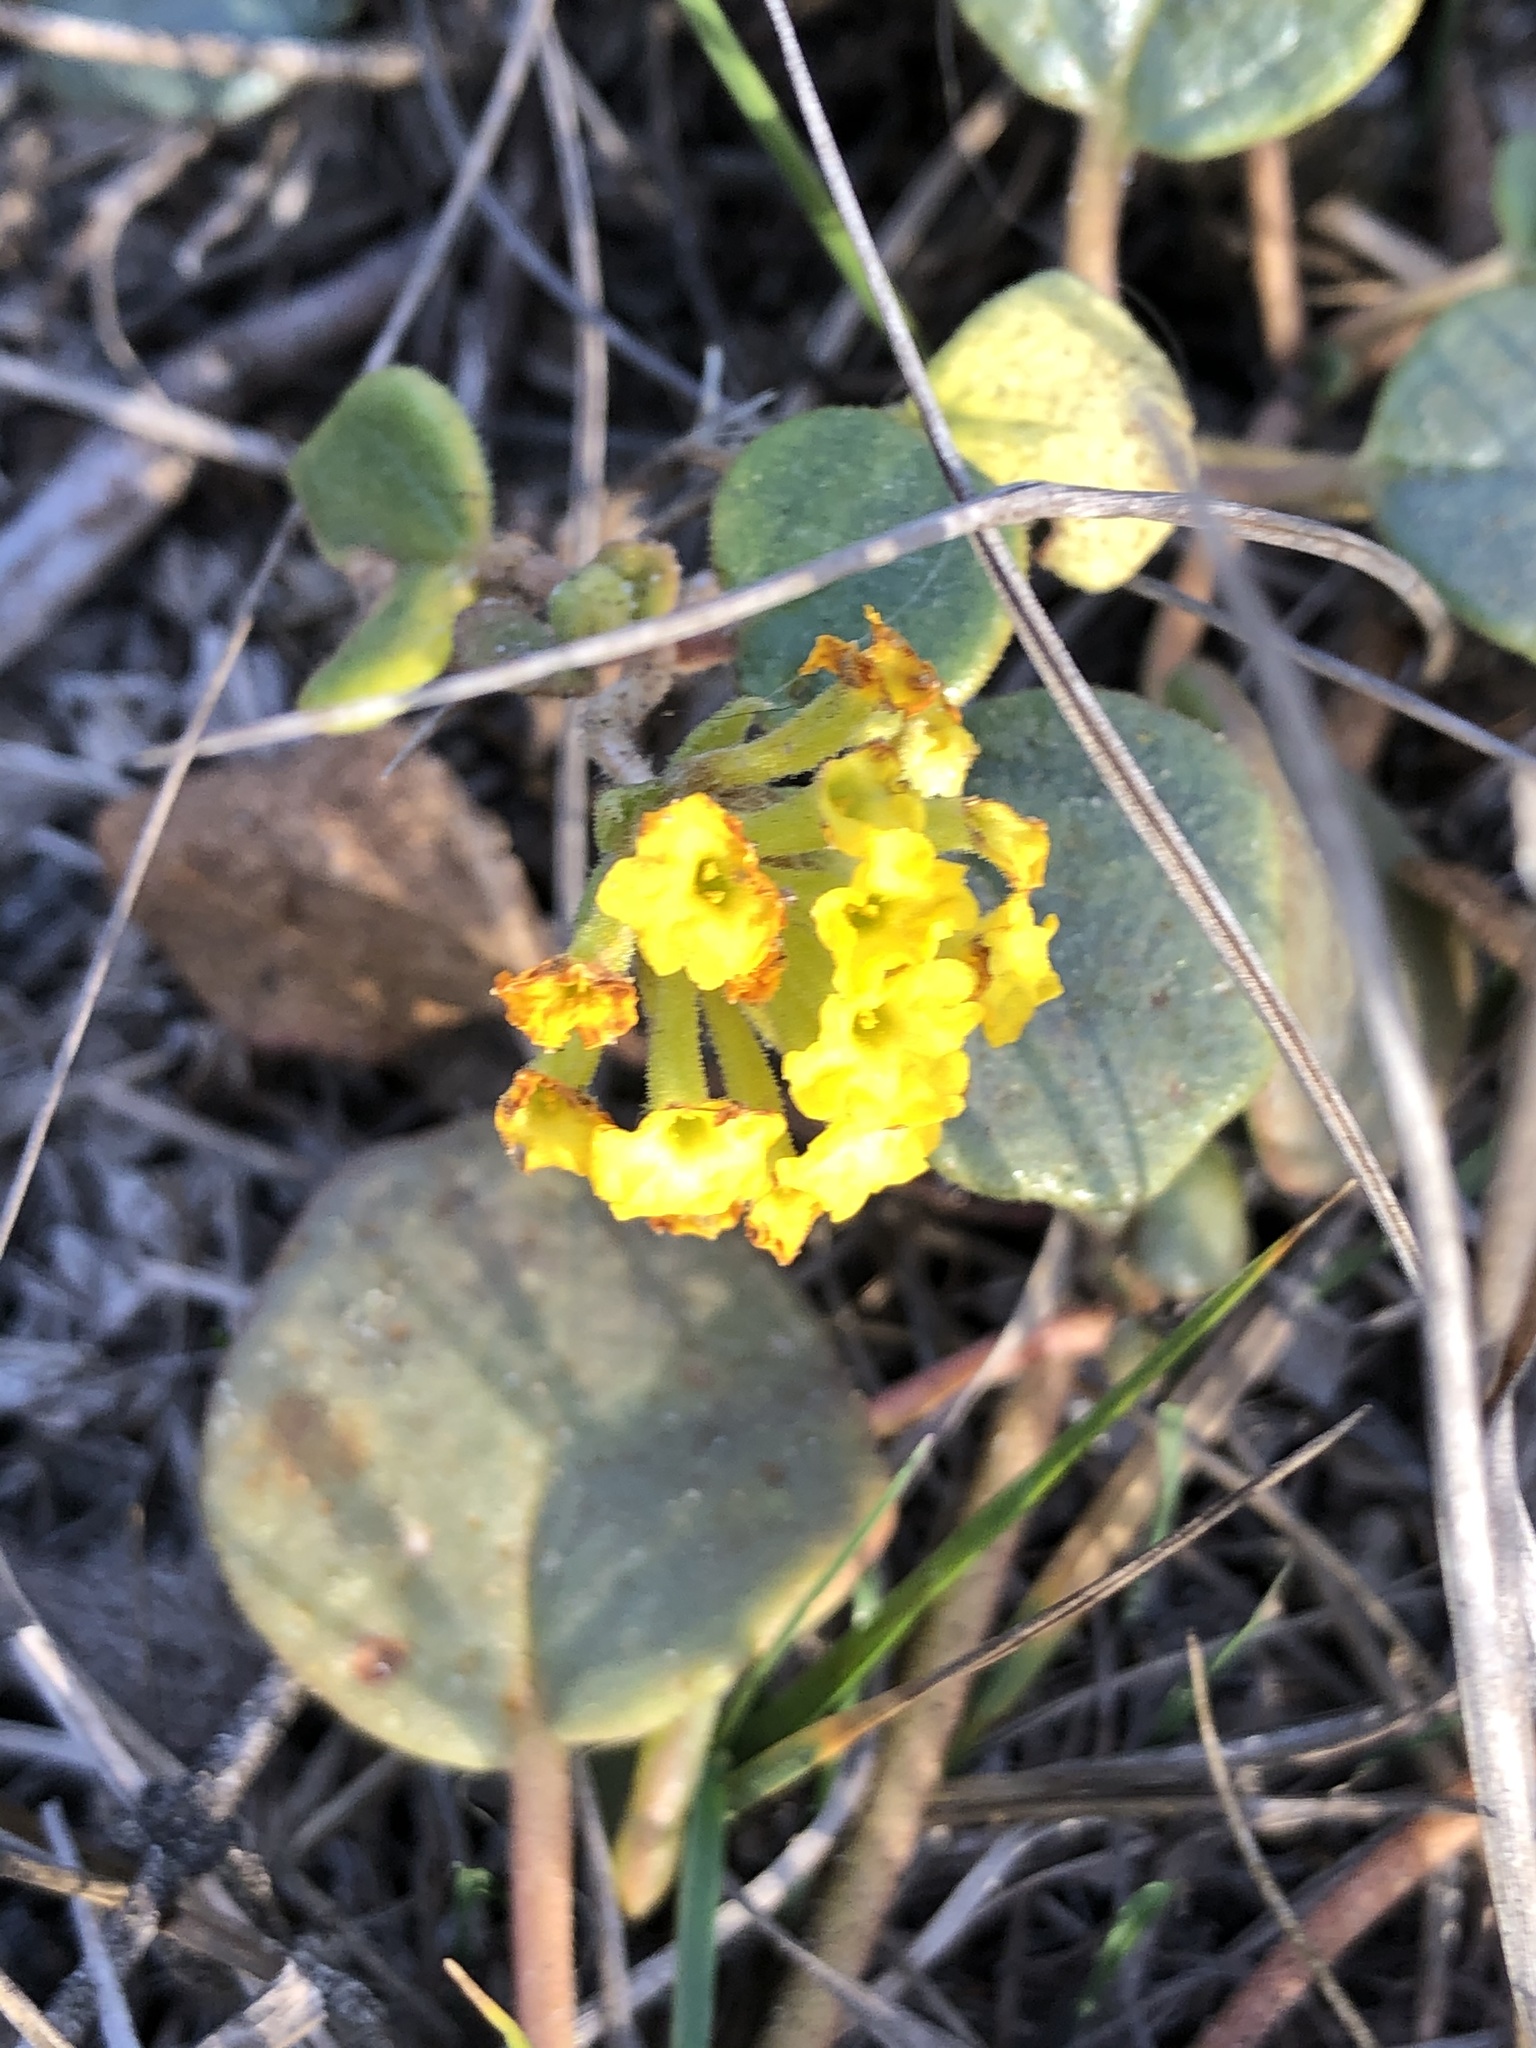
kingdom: Plantae
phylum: Tracheophyta
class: Magnoliopsida
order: Caryophyllales
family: Nyctaginaceae
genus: Abronia
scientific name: Abronia latifolia
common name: Yellow sand-verbena
